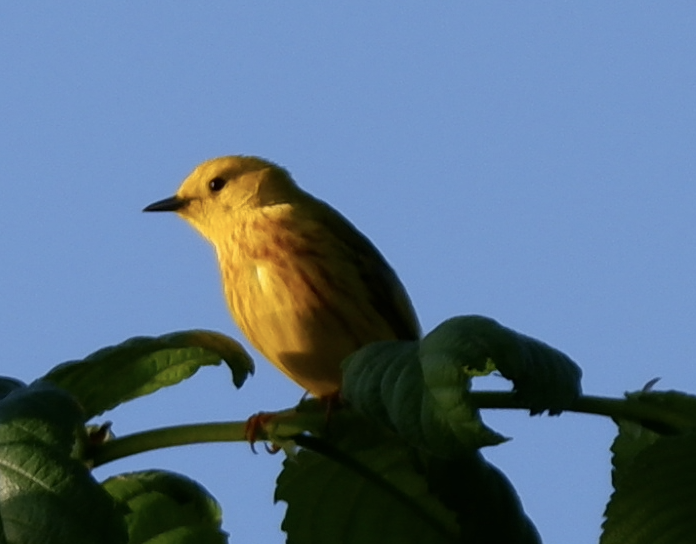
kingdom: Animalia
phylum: Chordata
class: Aves
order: Passeriformes
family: Parulidae
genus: Setophaga
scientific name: Setophaga petechia
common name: Yellow warbler
